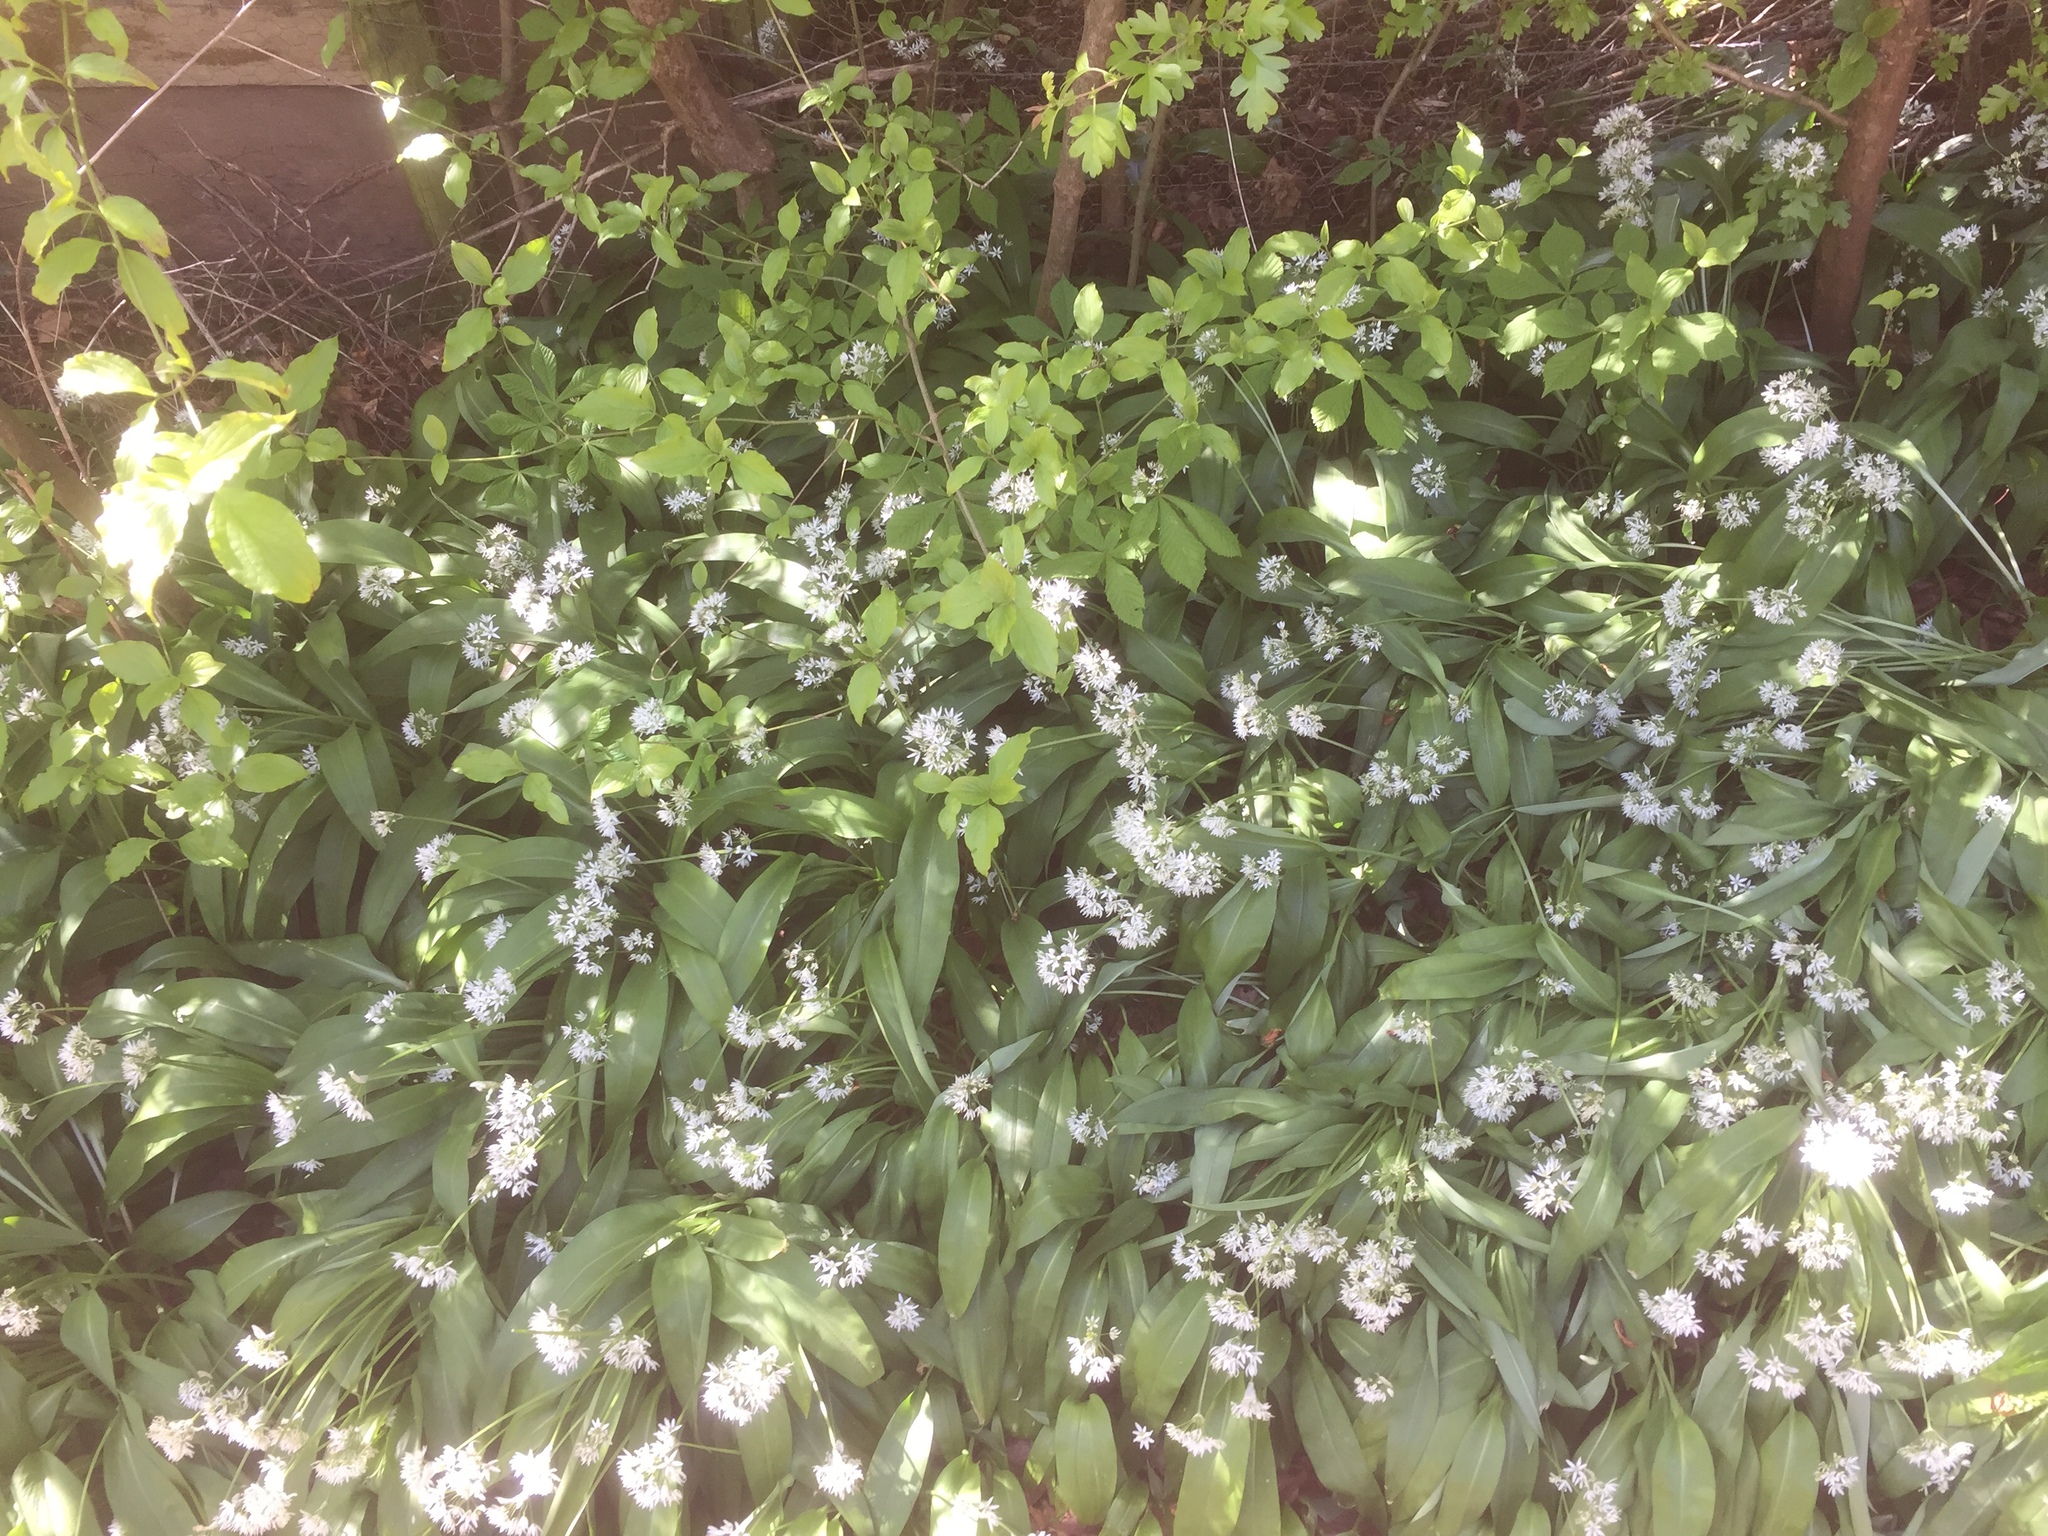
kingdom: Plantae
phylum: Tracheophyta
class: Liliopsida
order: Asparagales
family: Amaryllidaceae
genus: Allium
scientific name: Allium ursinum
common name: Ramsons
